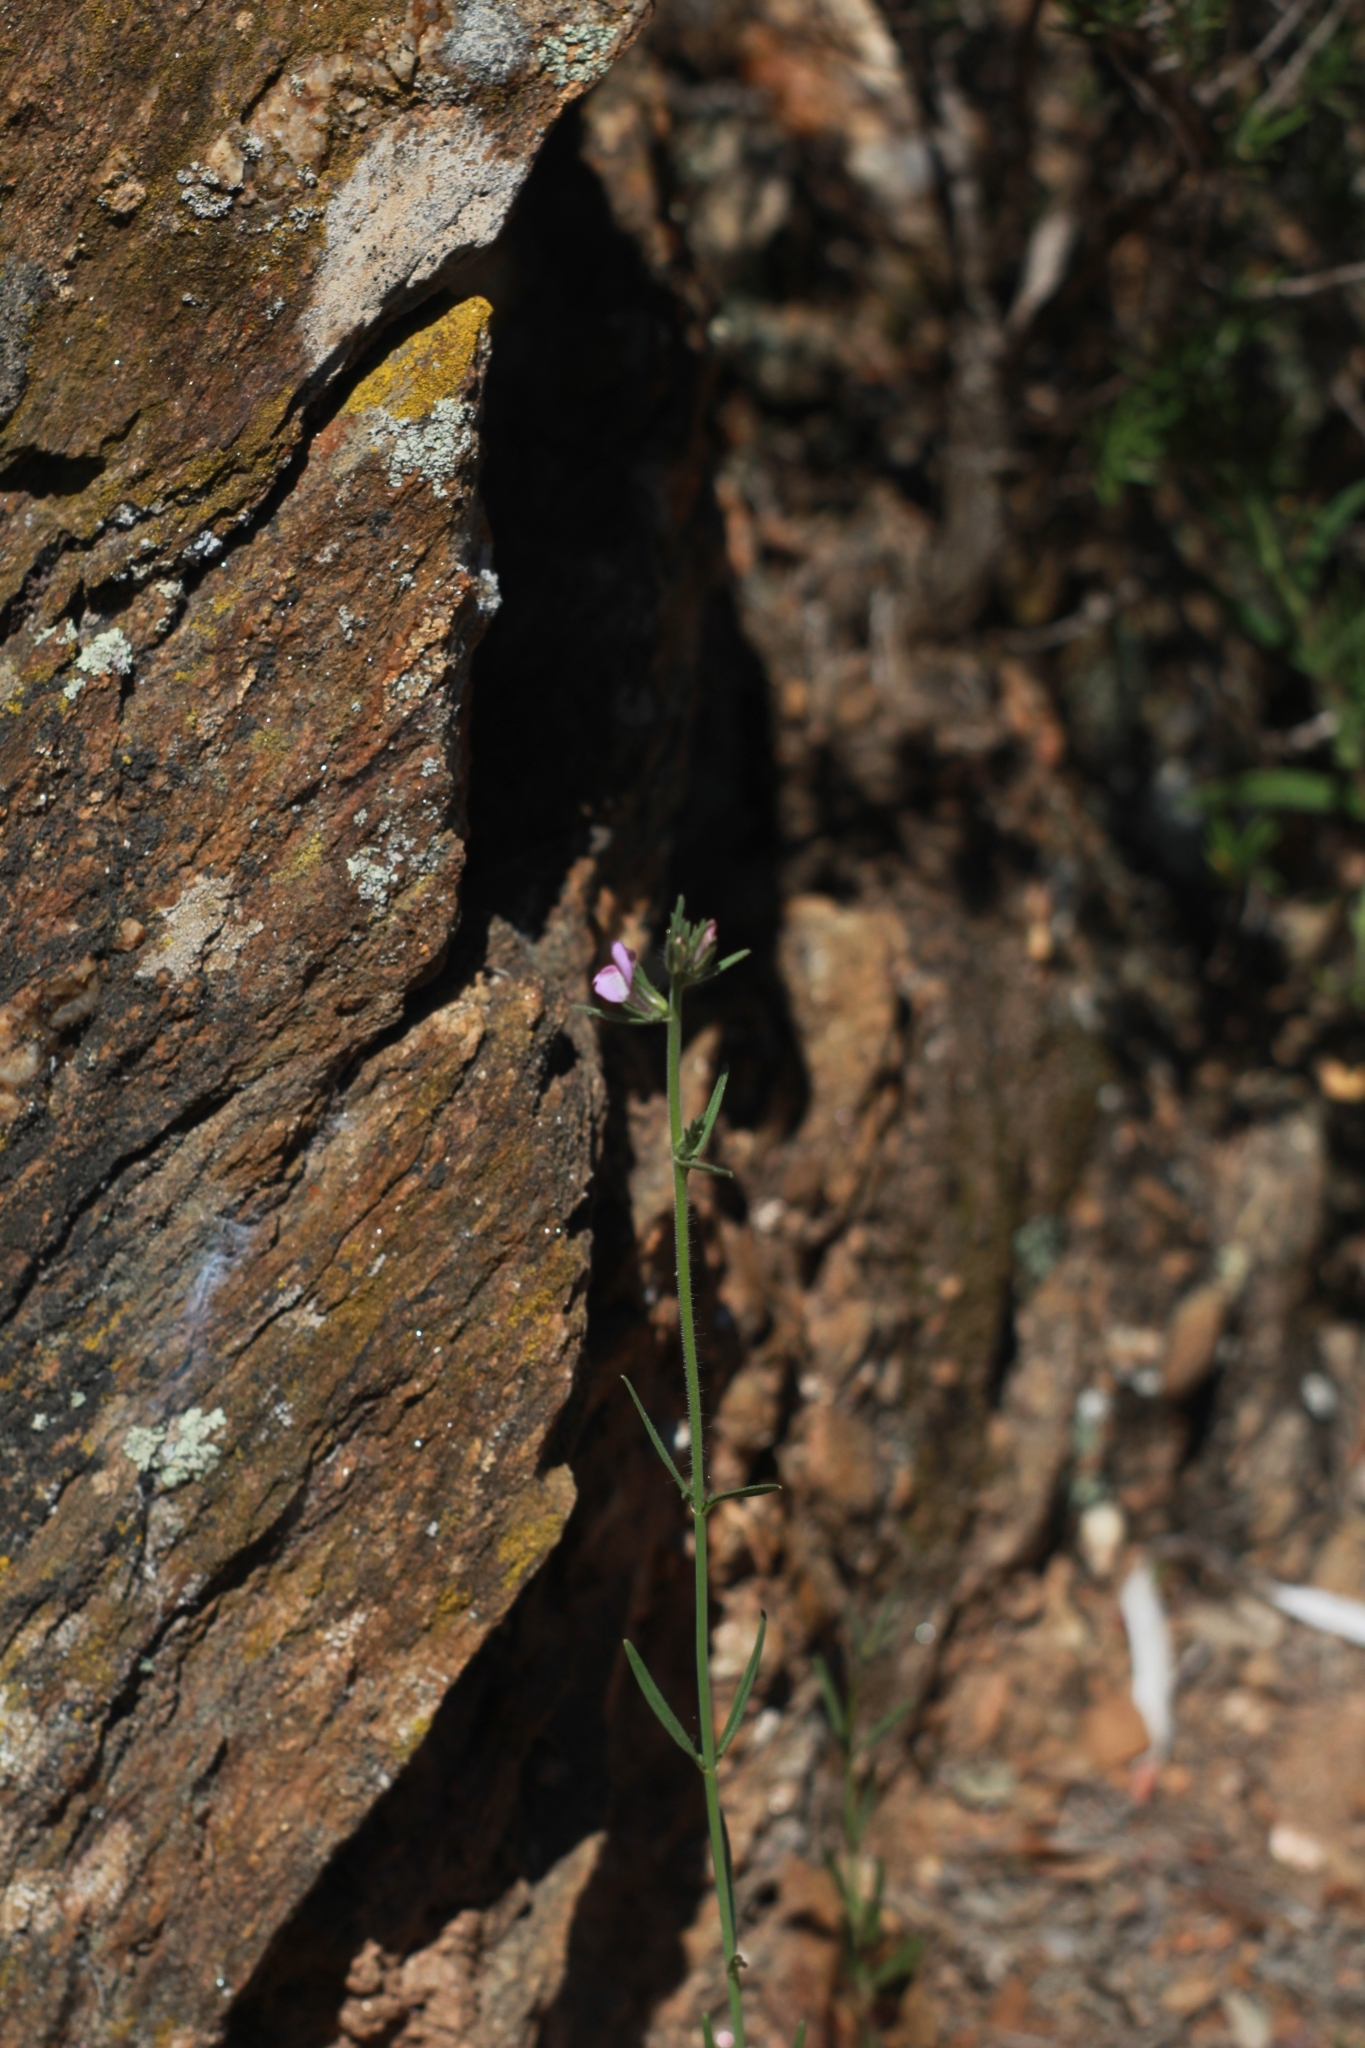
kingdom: Plantae
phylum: Tracheophyta
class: Magnoliopsida
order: Lamiales
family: Plantaginaceae
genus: Misopates
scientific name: Misopates orontium
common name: Weasel's-snout
